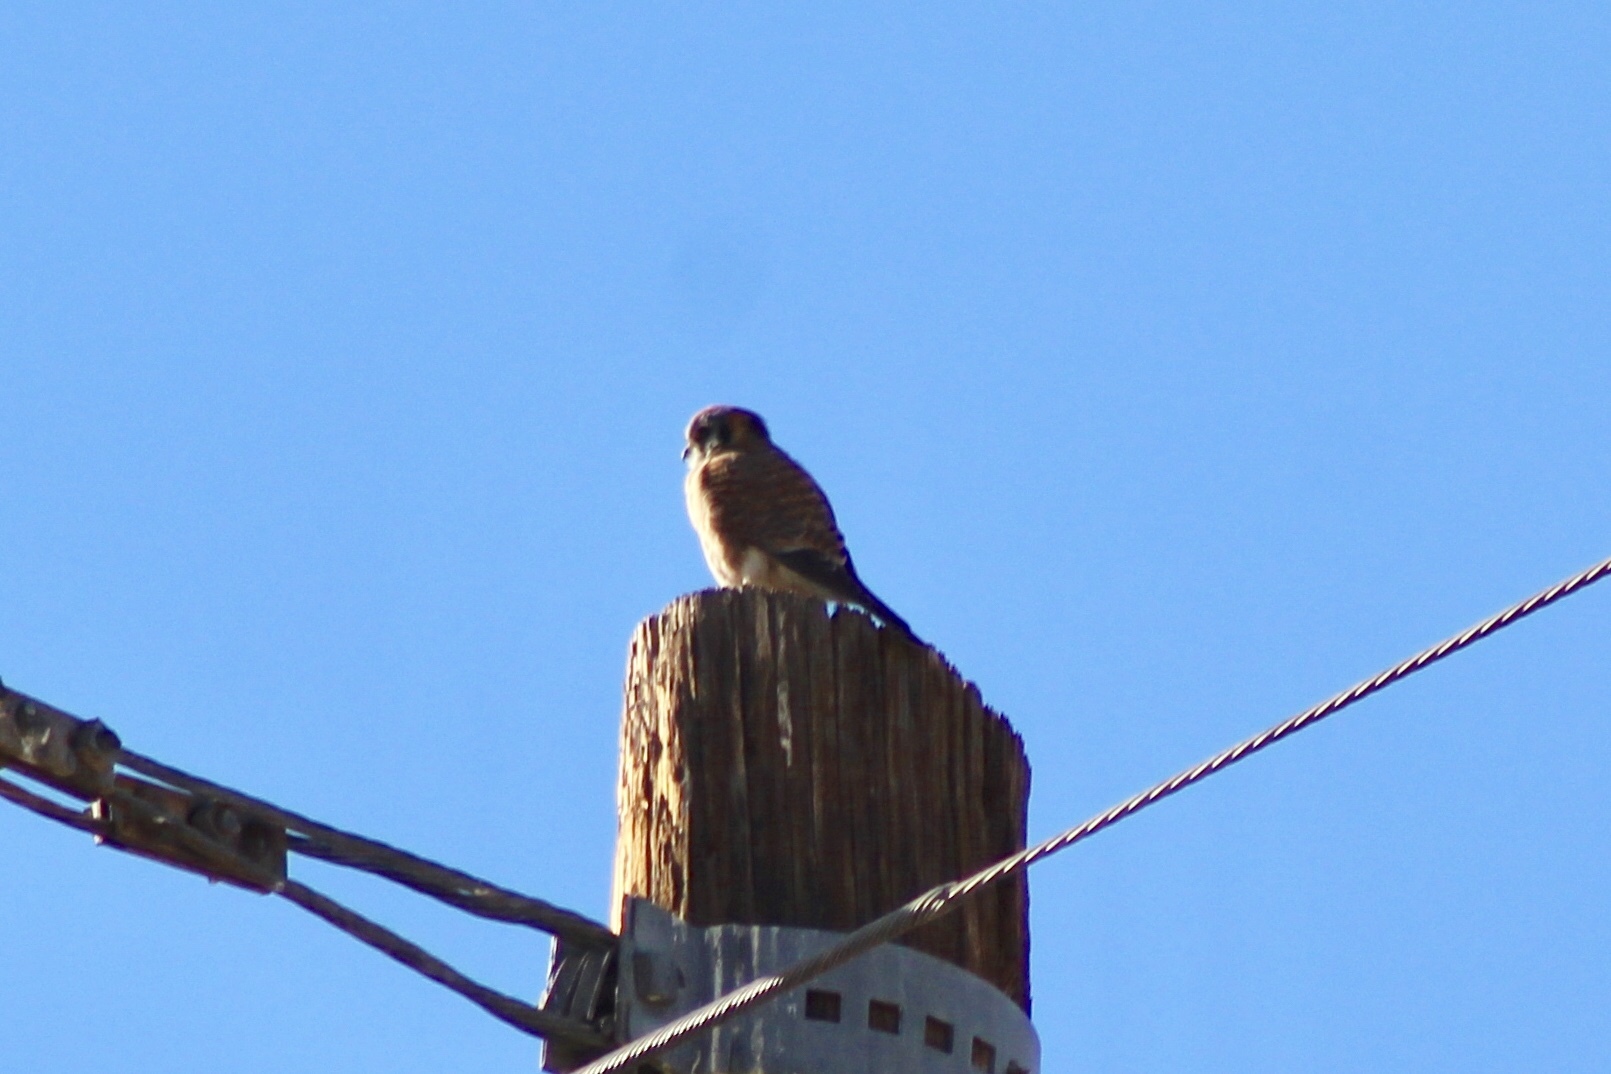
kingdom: Animalia
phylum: Chordata
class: Aves
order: Falconiformes
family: Falconidae
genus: Falco
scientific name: Falco sparverius
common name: American kestrel
